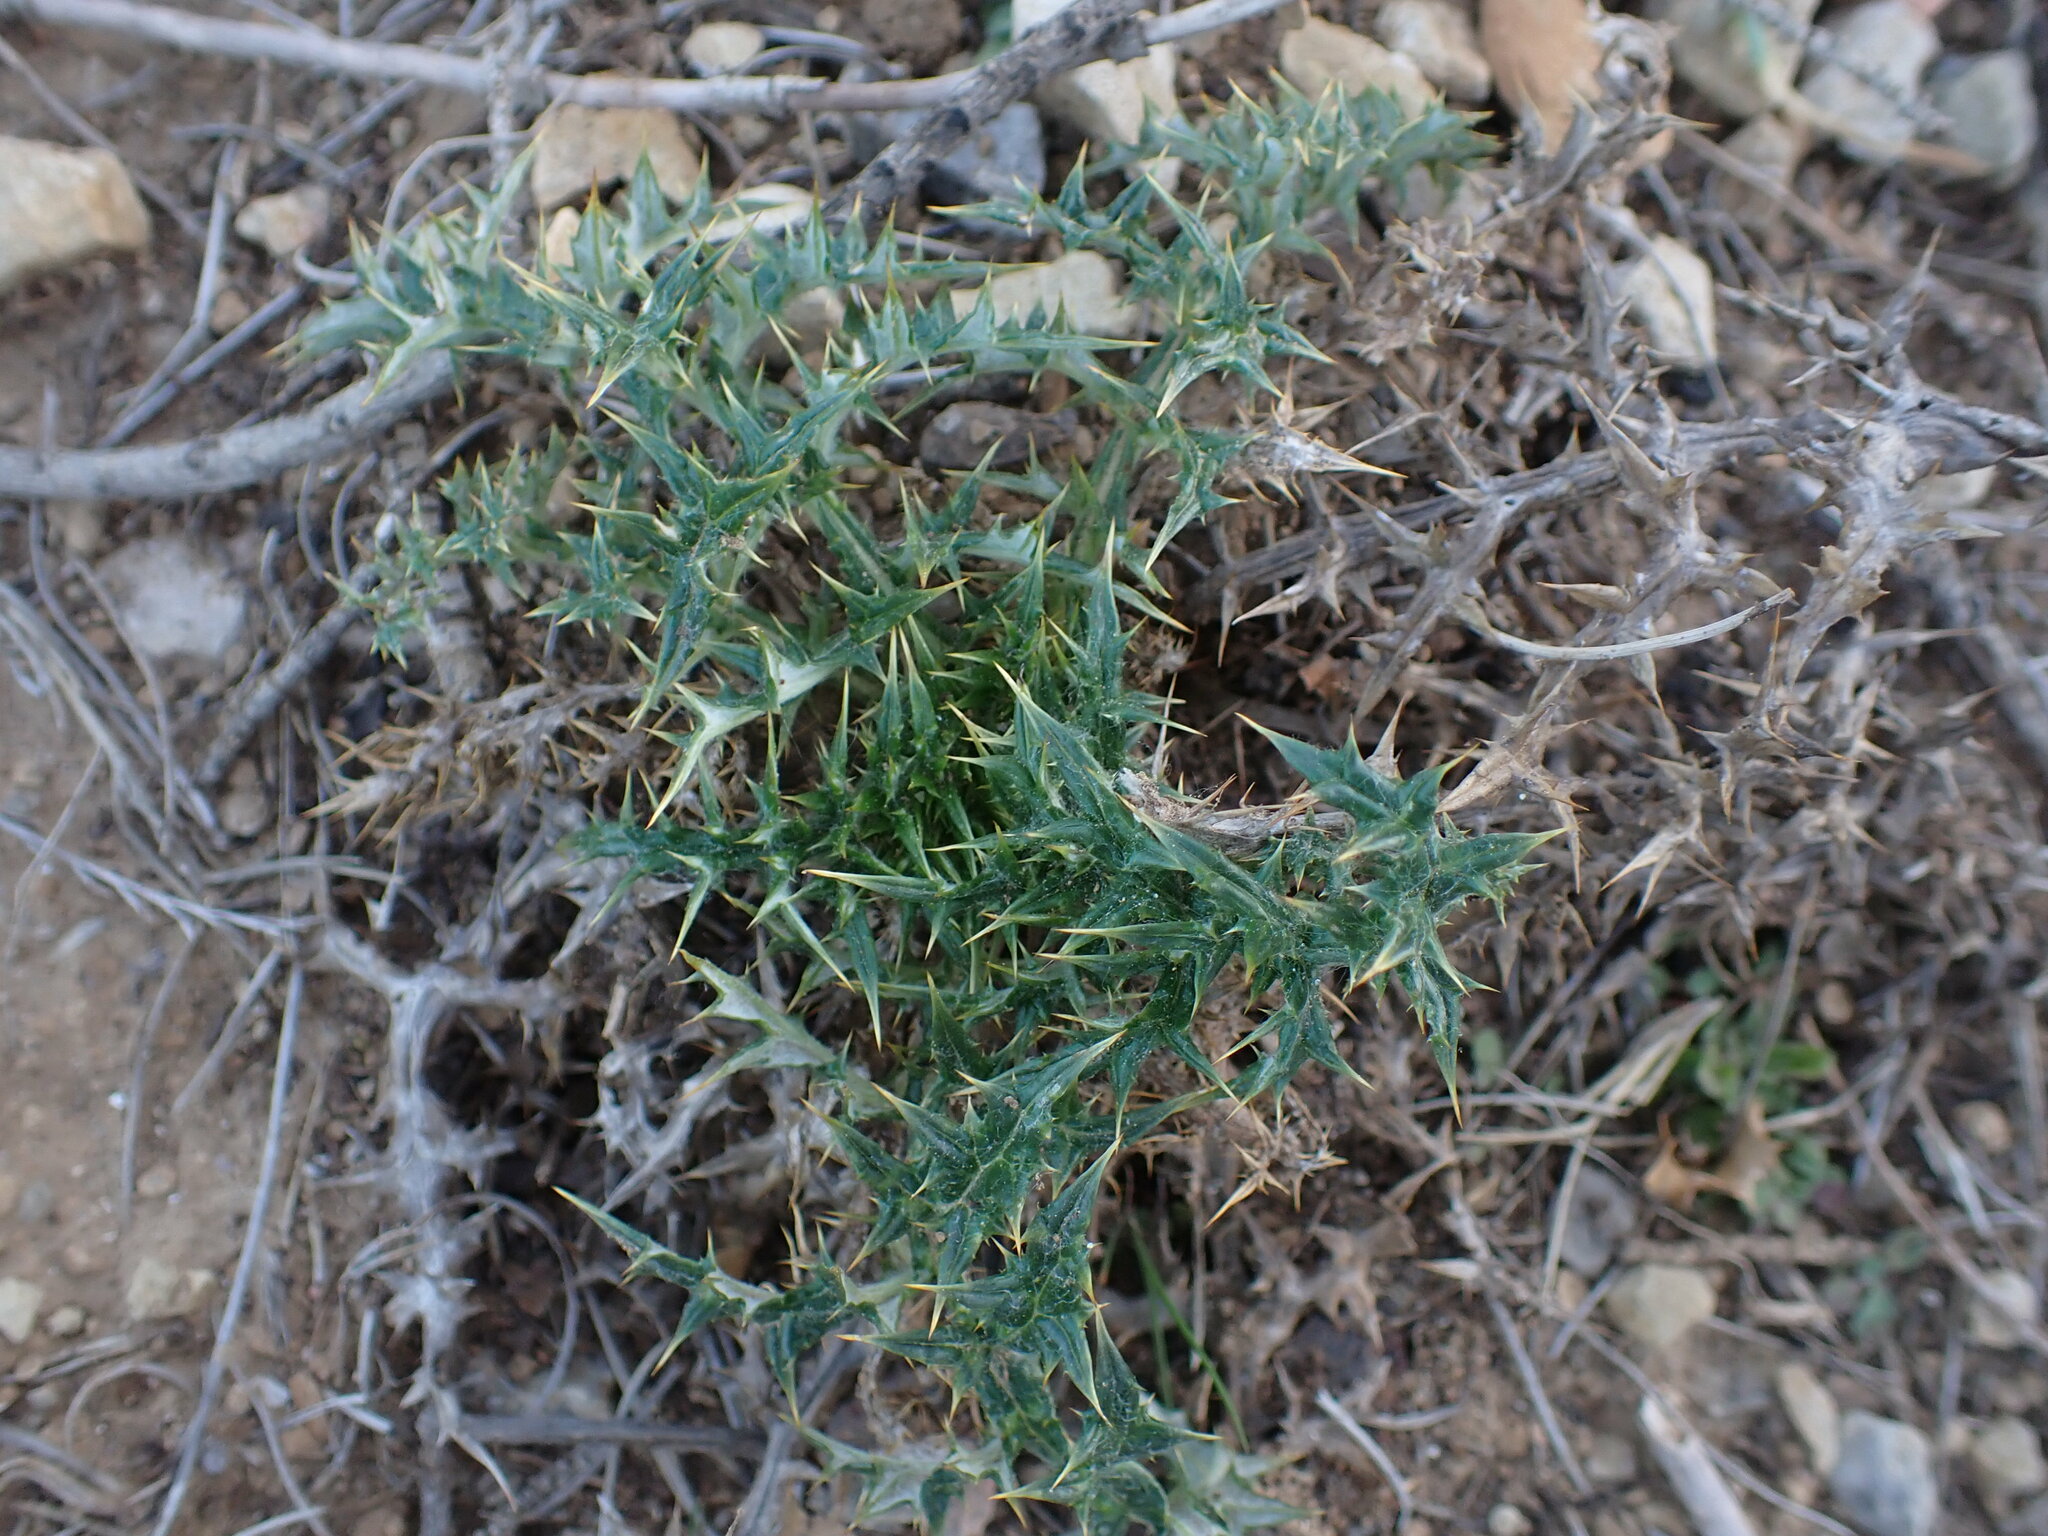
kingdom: Plantae
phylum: Tracheophyta
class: Magnoliopsida
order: Asterales
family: Asteraceae
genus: Echinops
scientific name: Echinops ritro
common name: Globe thistle
